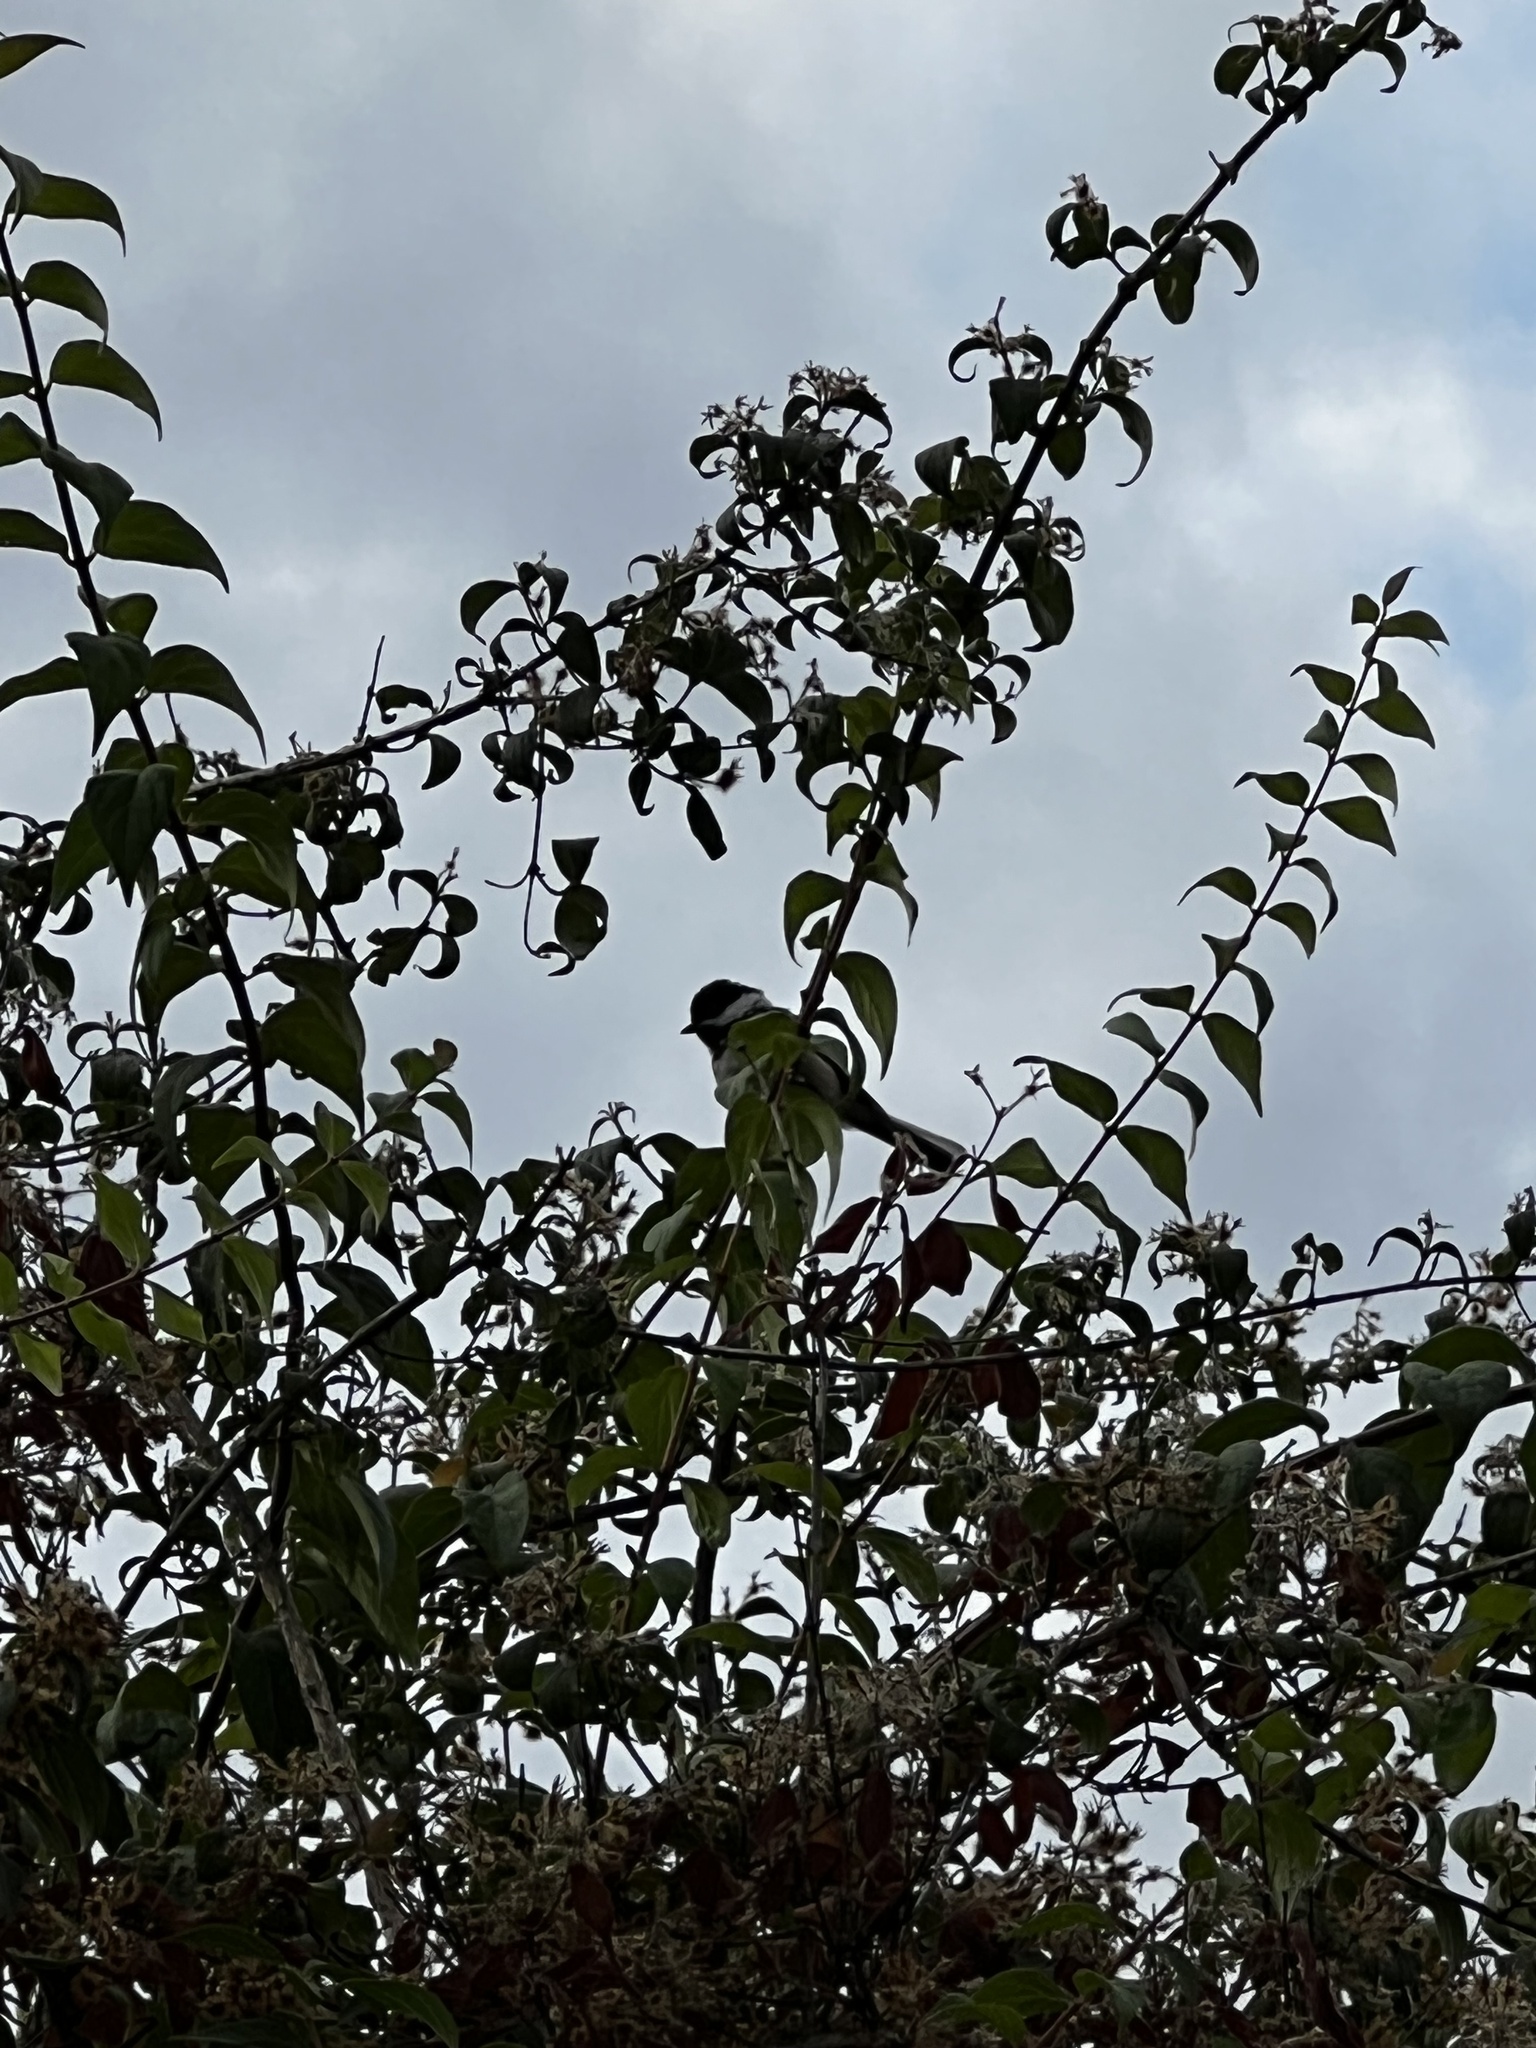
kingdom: Animalia
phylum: Chordata
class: Aves
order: Passeriformes
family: Paridae
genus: Poecile
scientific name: Poecile atricapillus
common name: Black-capped chickadee
